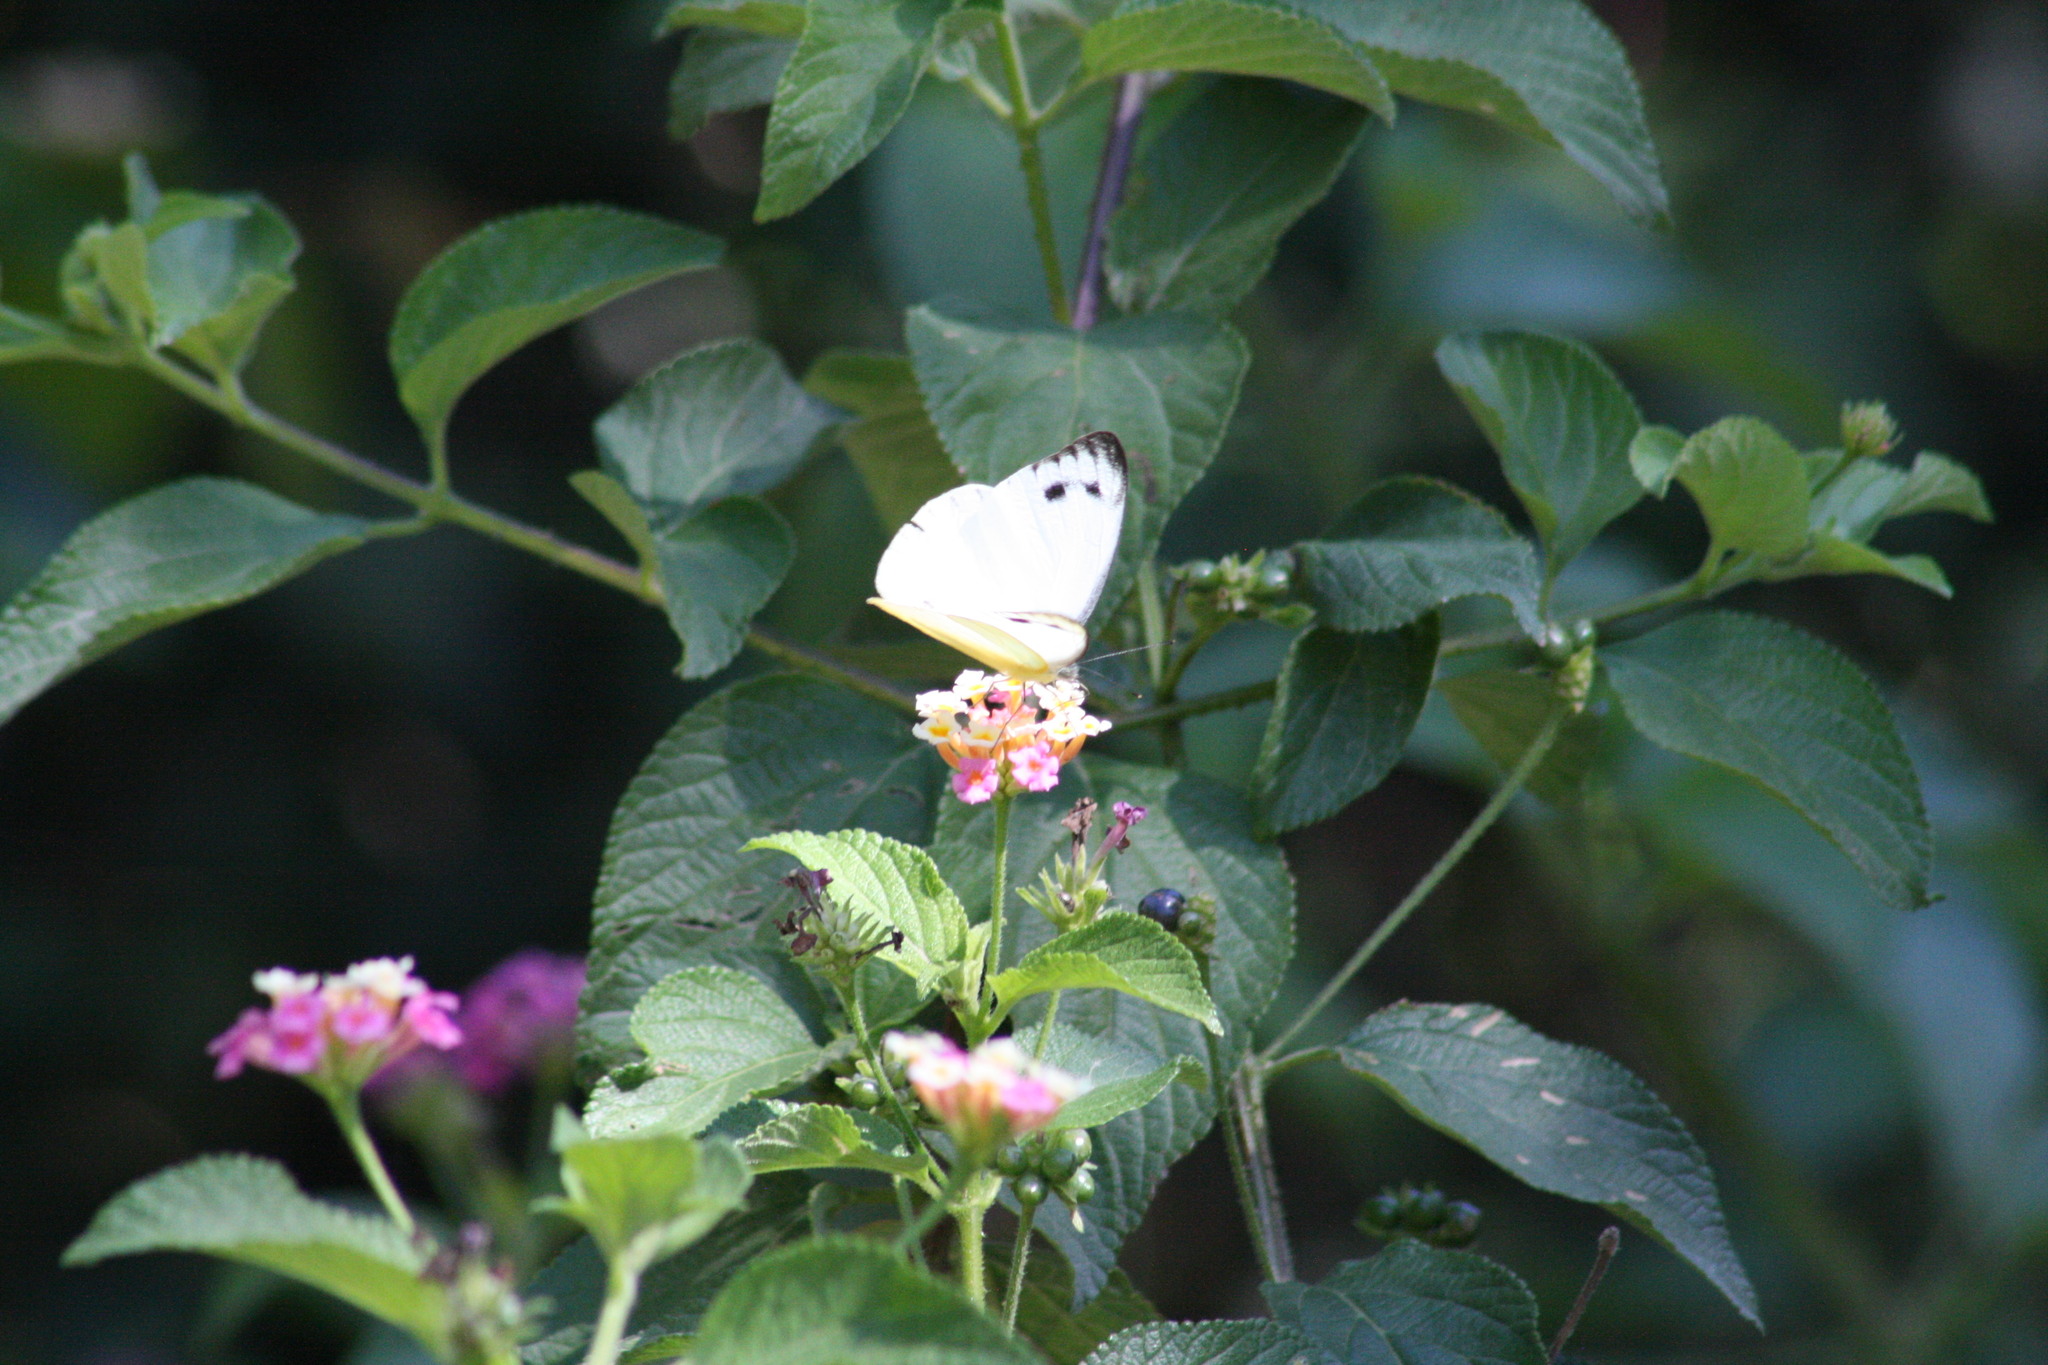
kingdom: Animalia
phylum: Arthropoda
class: Insecta
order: Lepidoptera
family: Pieridae
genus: Appias
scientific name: Appias paulina
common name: Ceylon lesser albatross
